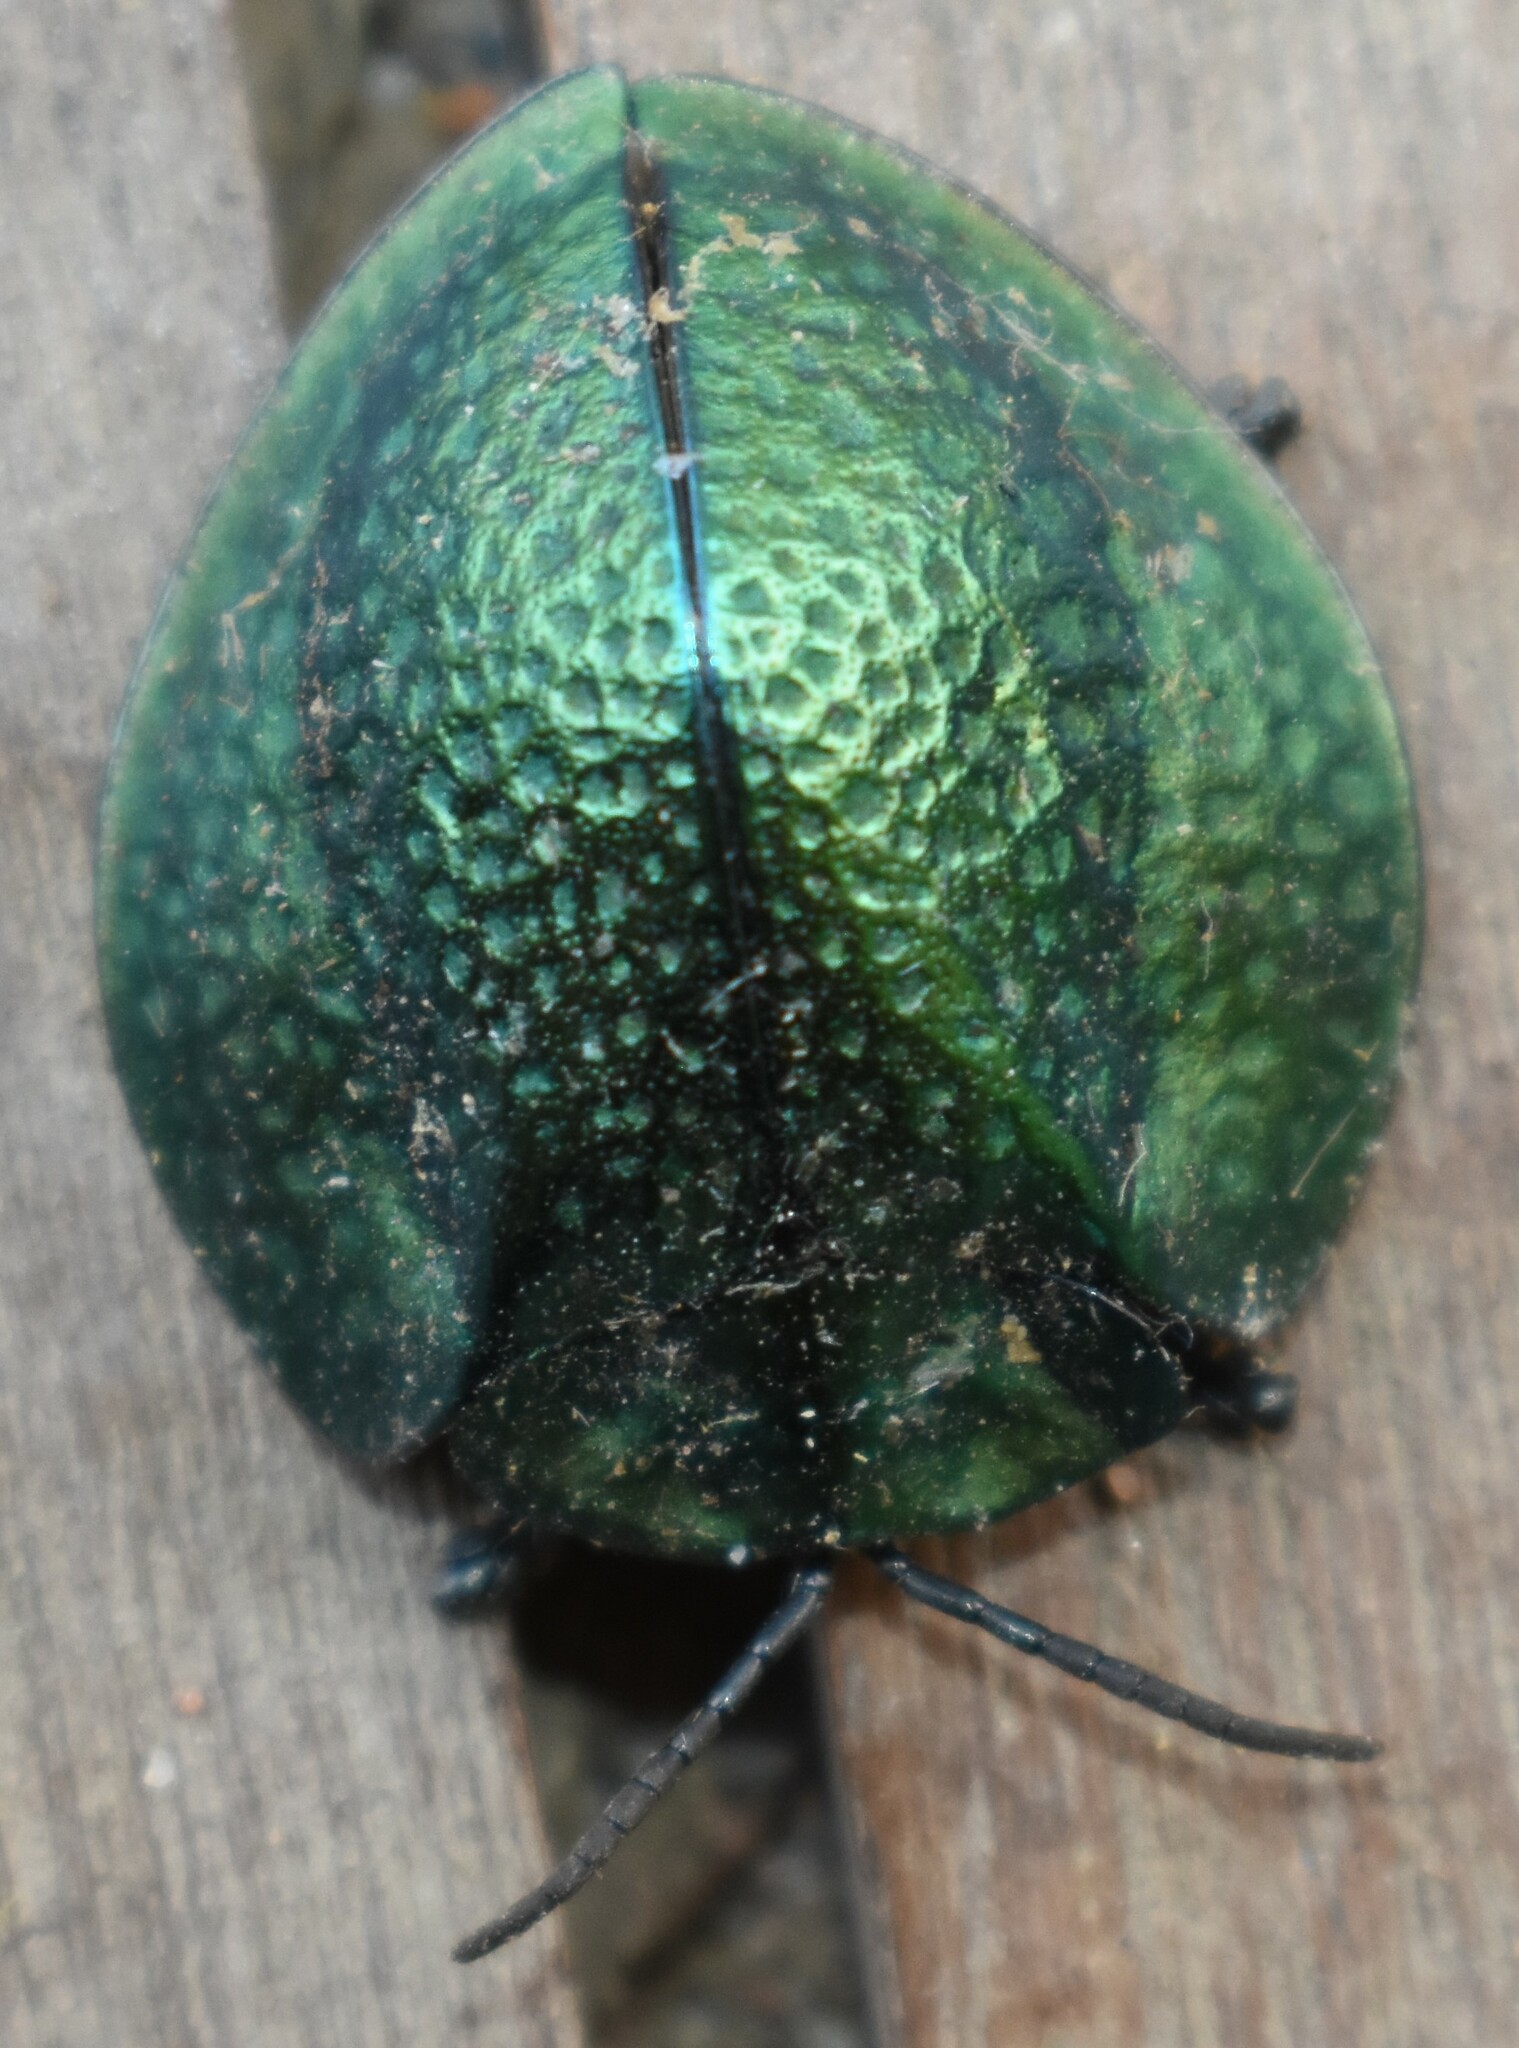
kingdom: Animalia
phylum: Arthropoda
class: Insecta
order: Coleoptera
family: Chrysomelidae
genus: Eugenysa
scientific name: Eugenysa diringshofeni
